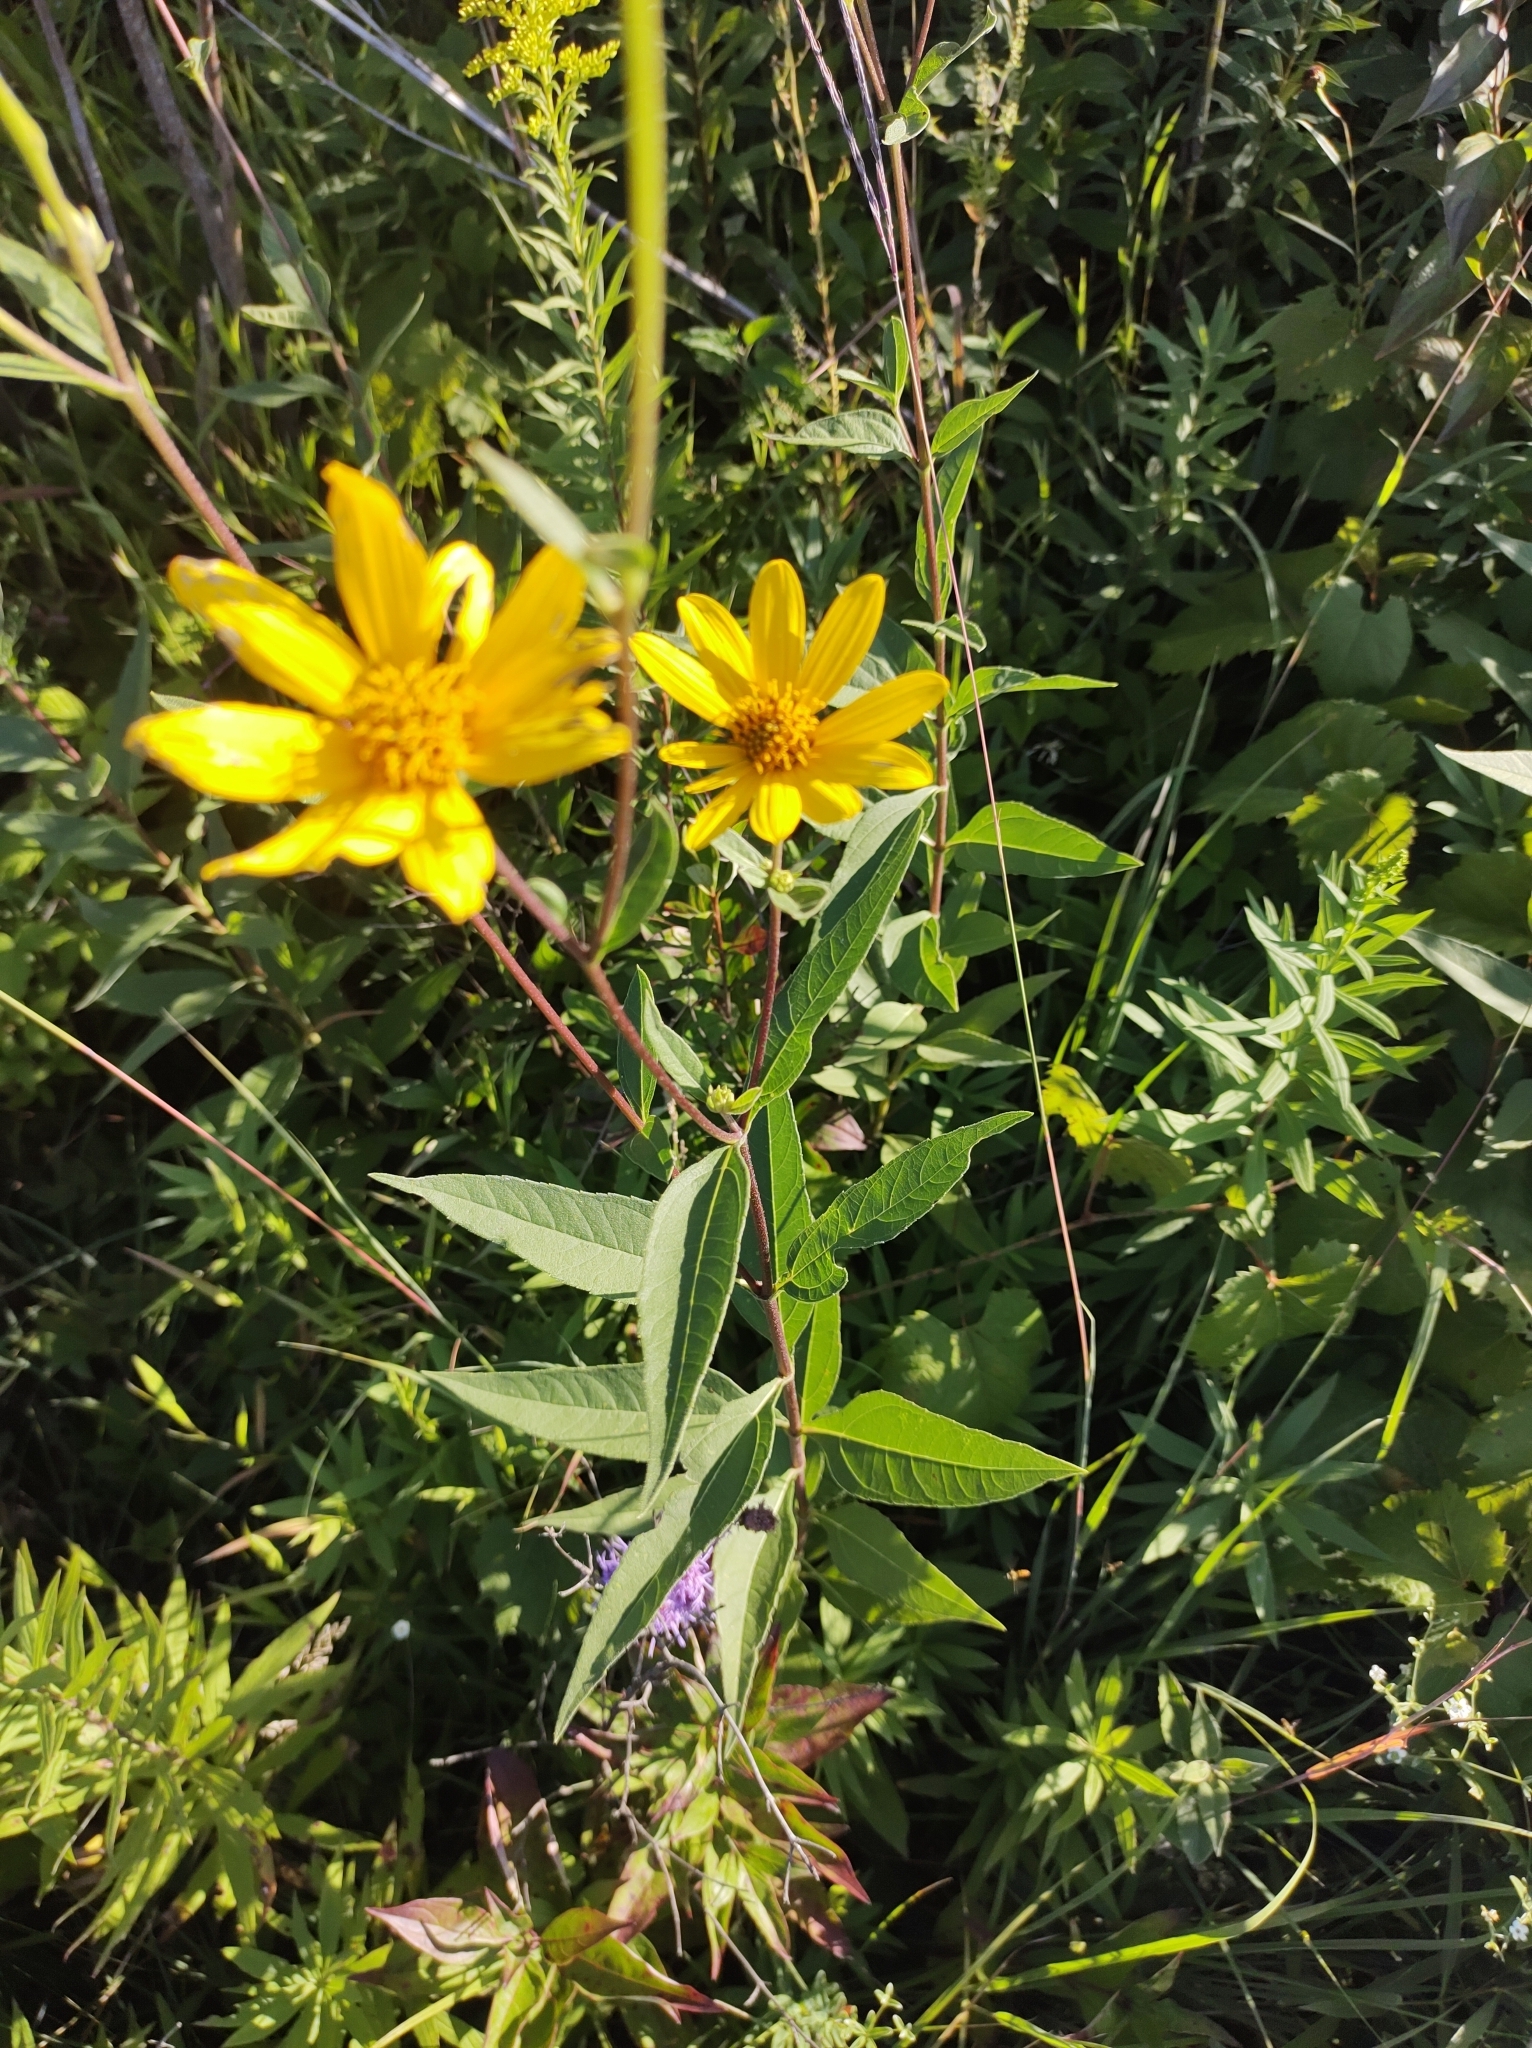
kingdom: Plantae
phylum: Tracheophyta
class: Magnoliopsida
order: Asterales
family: Asteraceae
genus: Helianthus
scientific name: Helianthus pauciflorus
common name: Stiff sunflower
